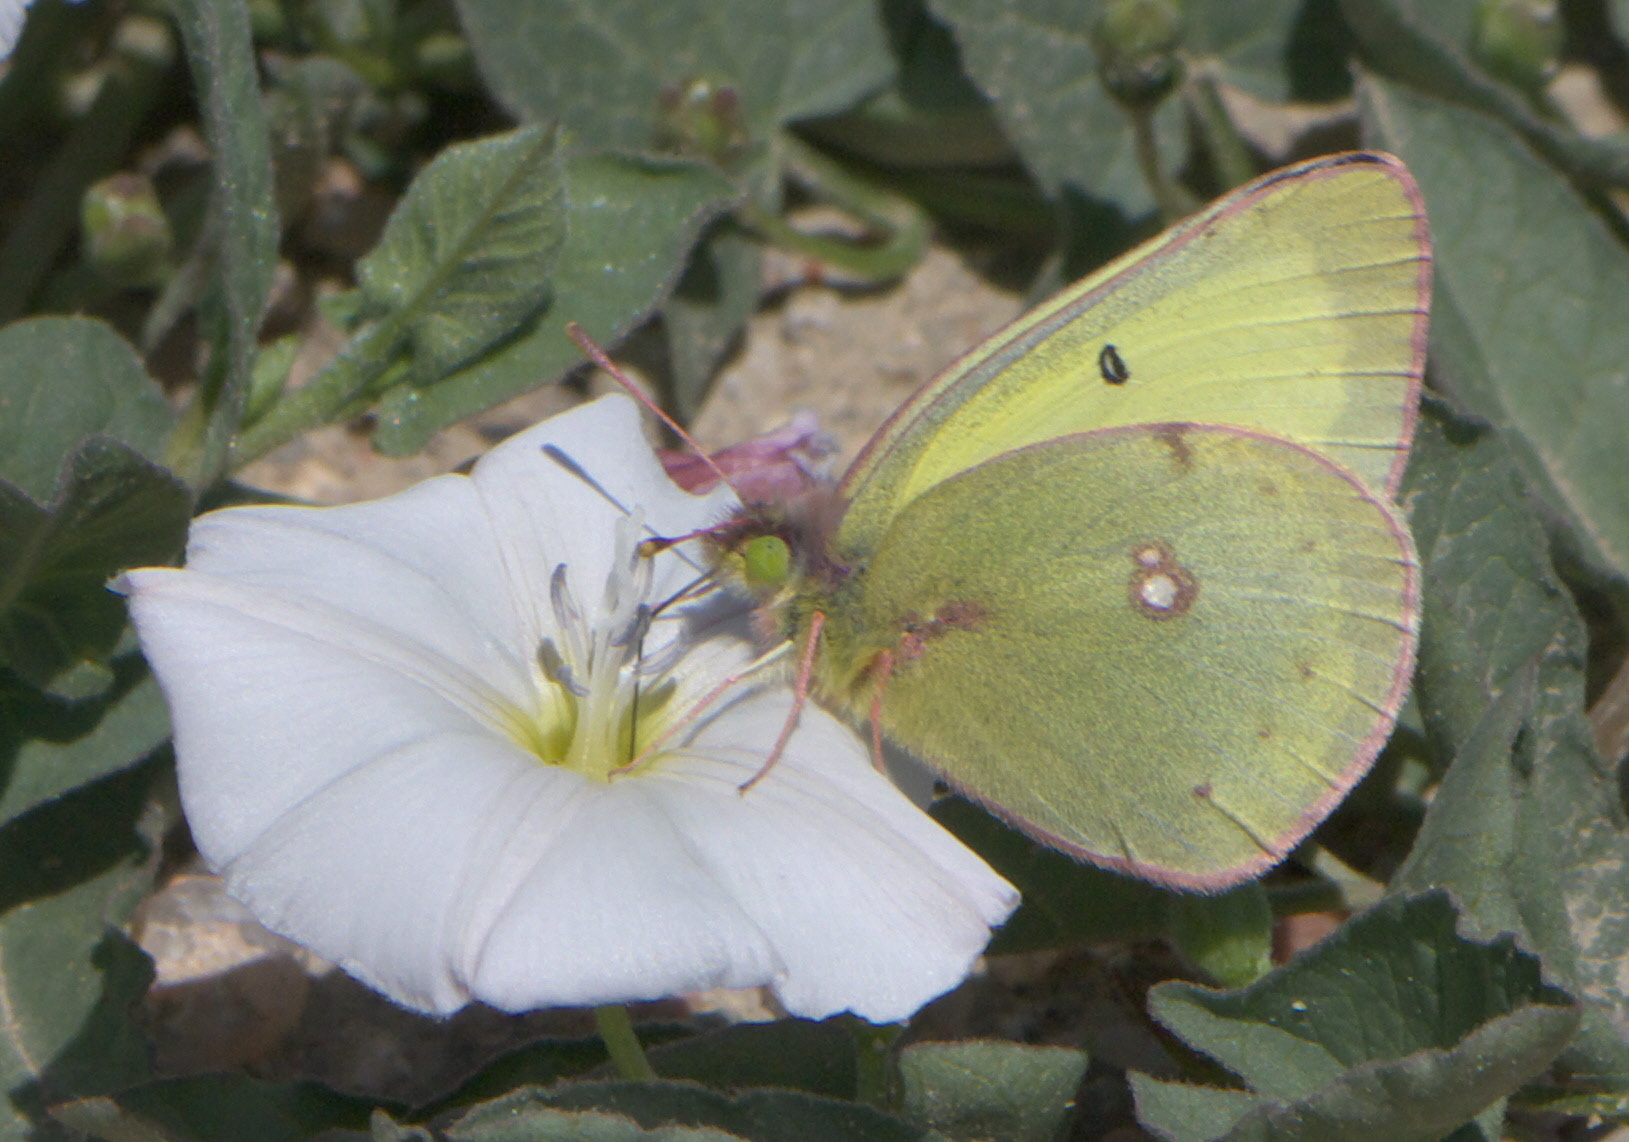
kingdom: Animalia
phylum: Arthropoda
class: Insecta
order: Lepidoptera
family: Pieridae
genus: Colias
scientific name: Colias philodice
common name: Clouded sulphur
